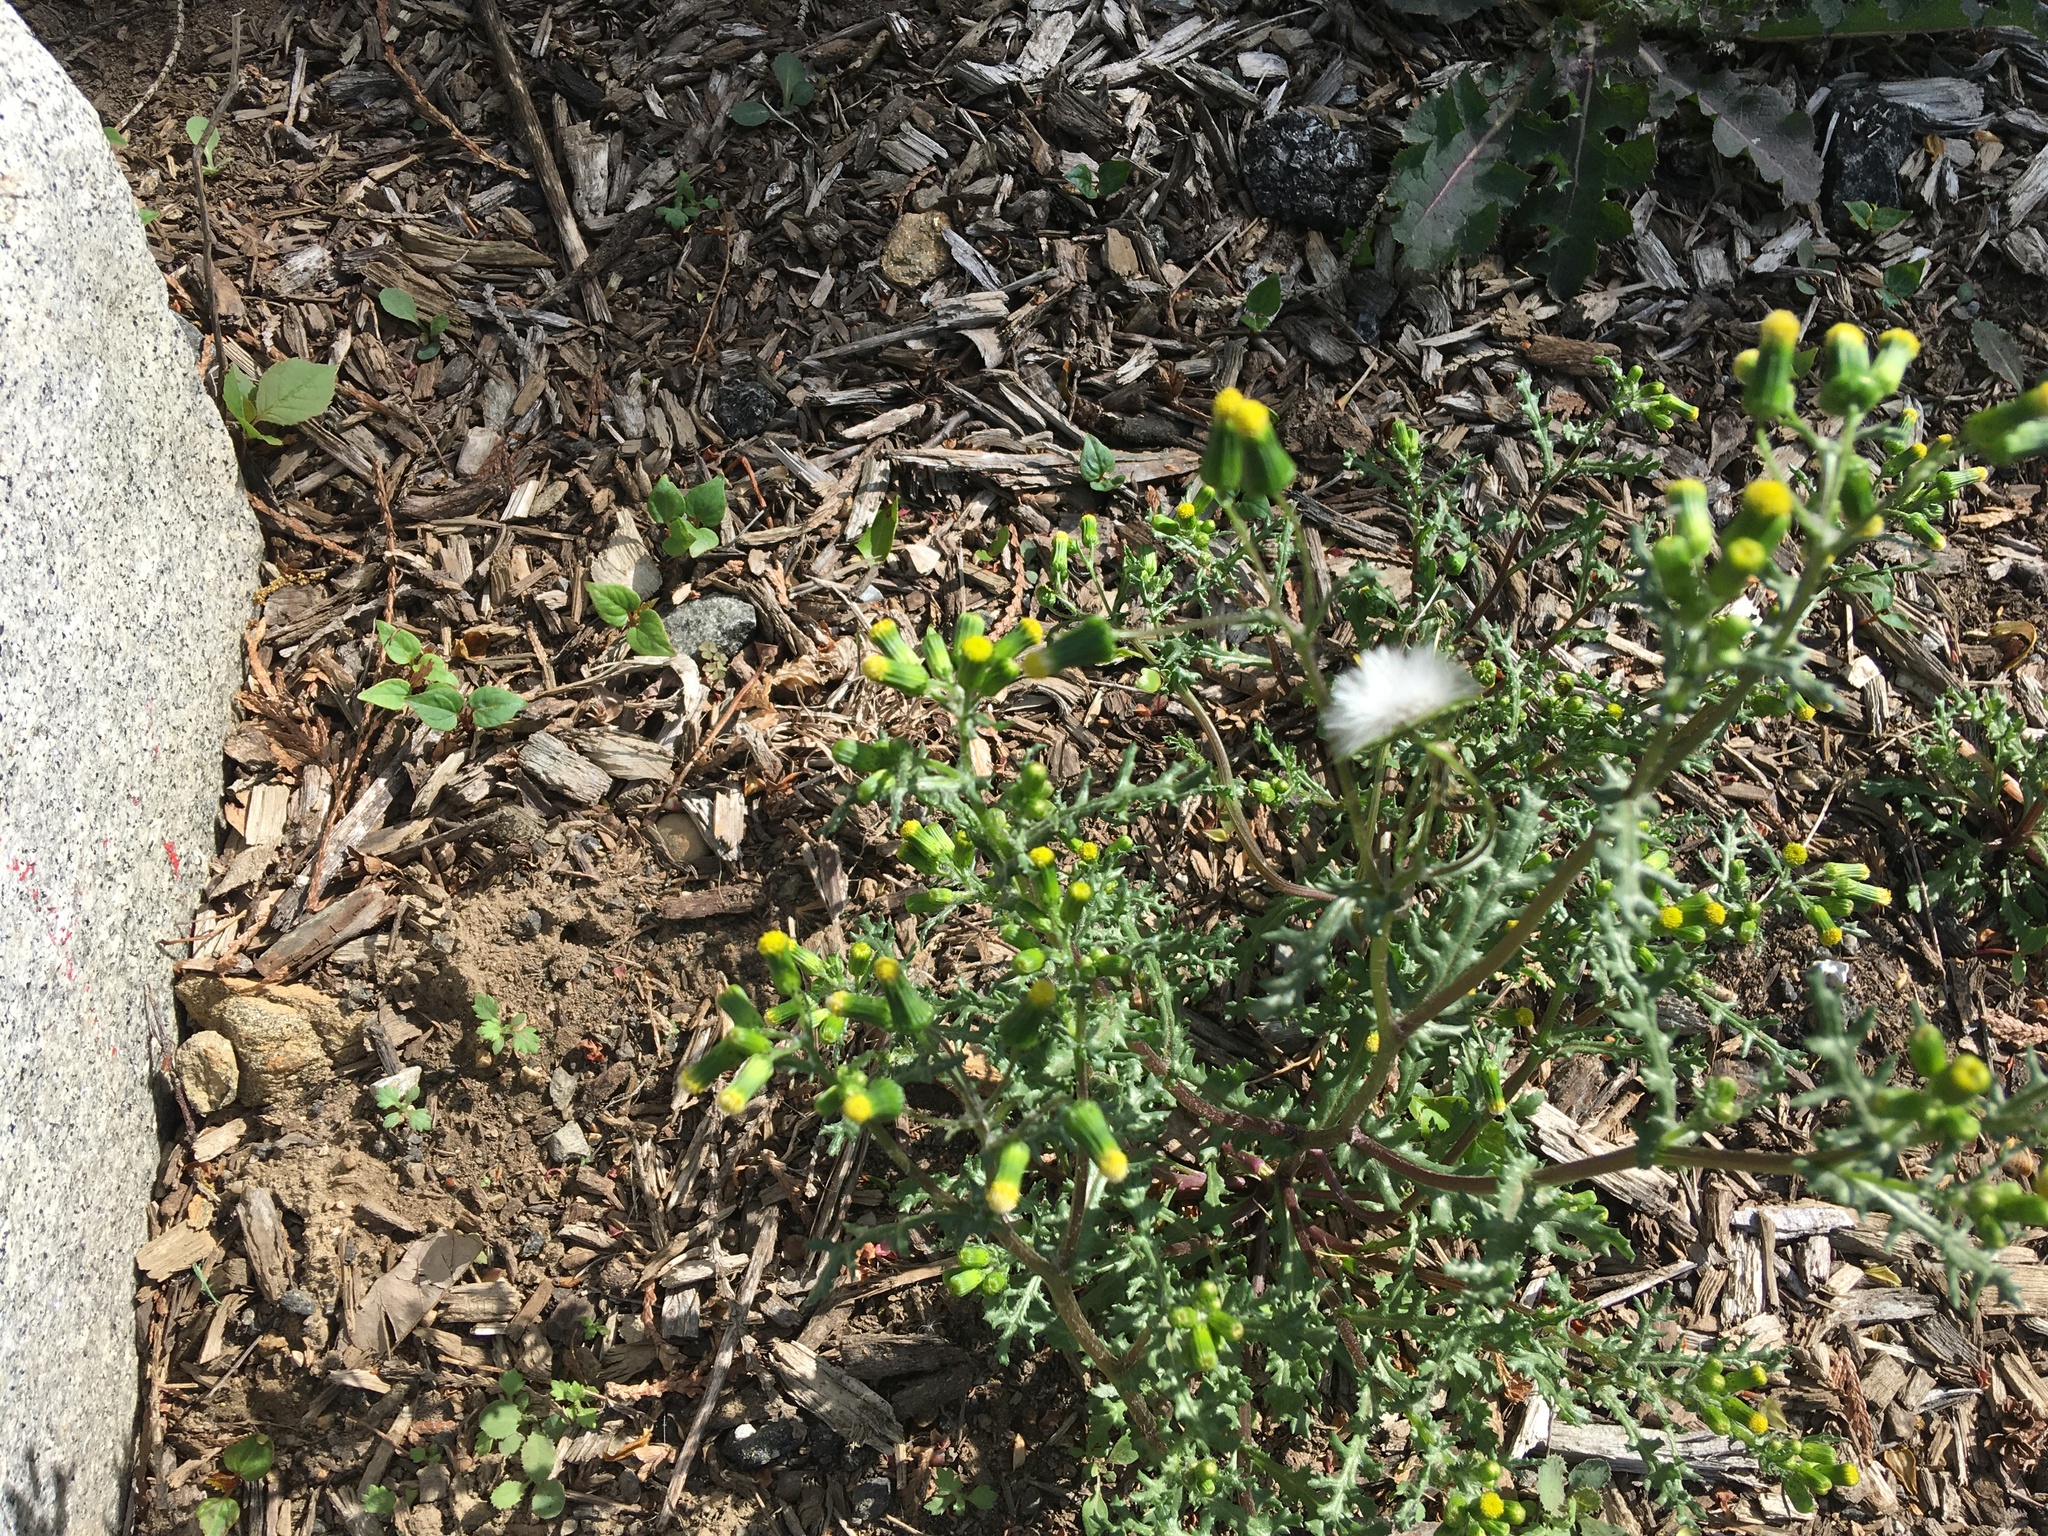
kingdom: Plantae
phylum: Tracheophyta
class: Magnoliopsida
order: Asterales
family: Asteraceae
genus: Senecio
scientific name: Senecio vulgaris
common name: Old-man-in-the-spring
